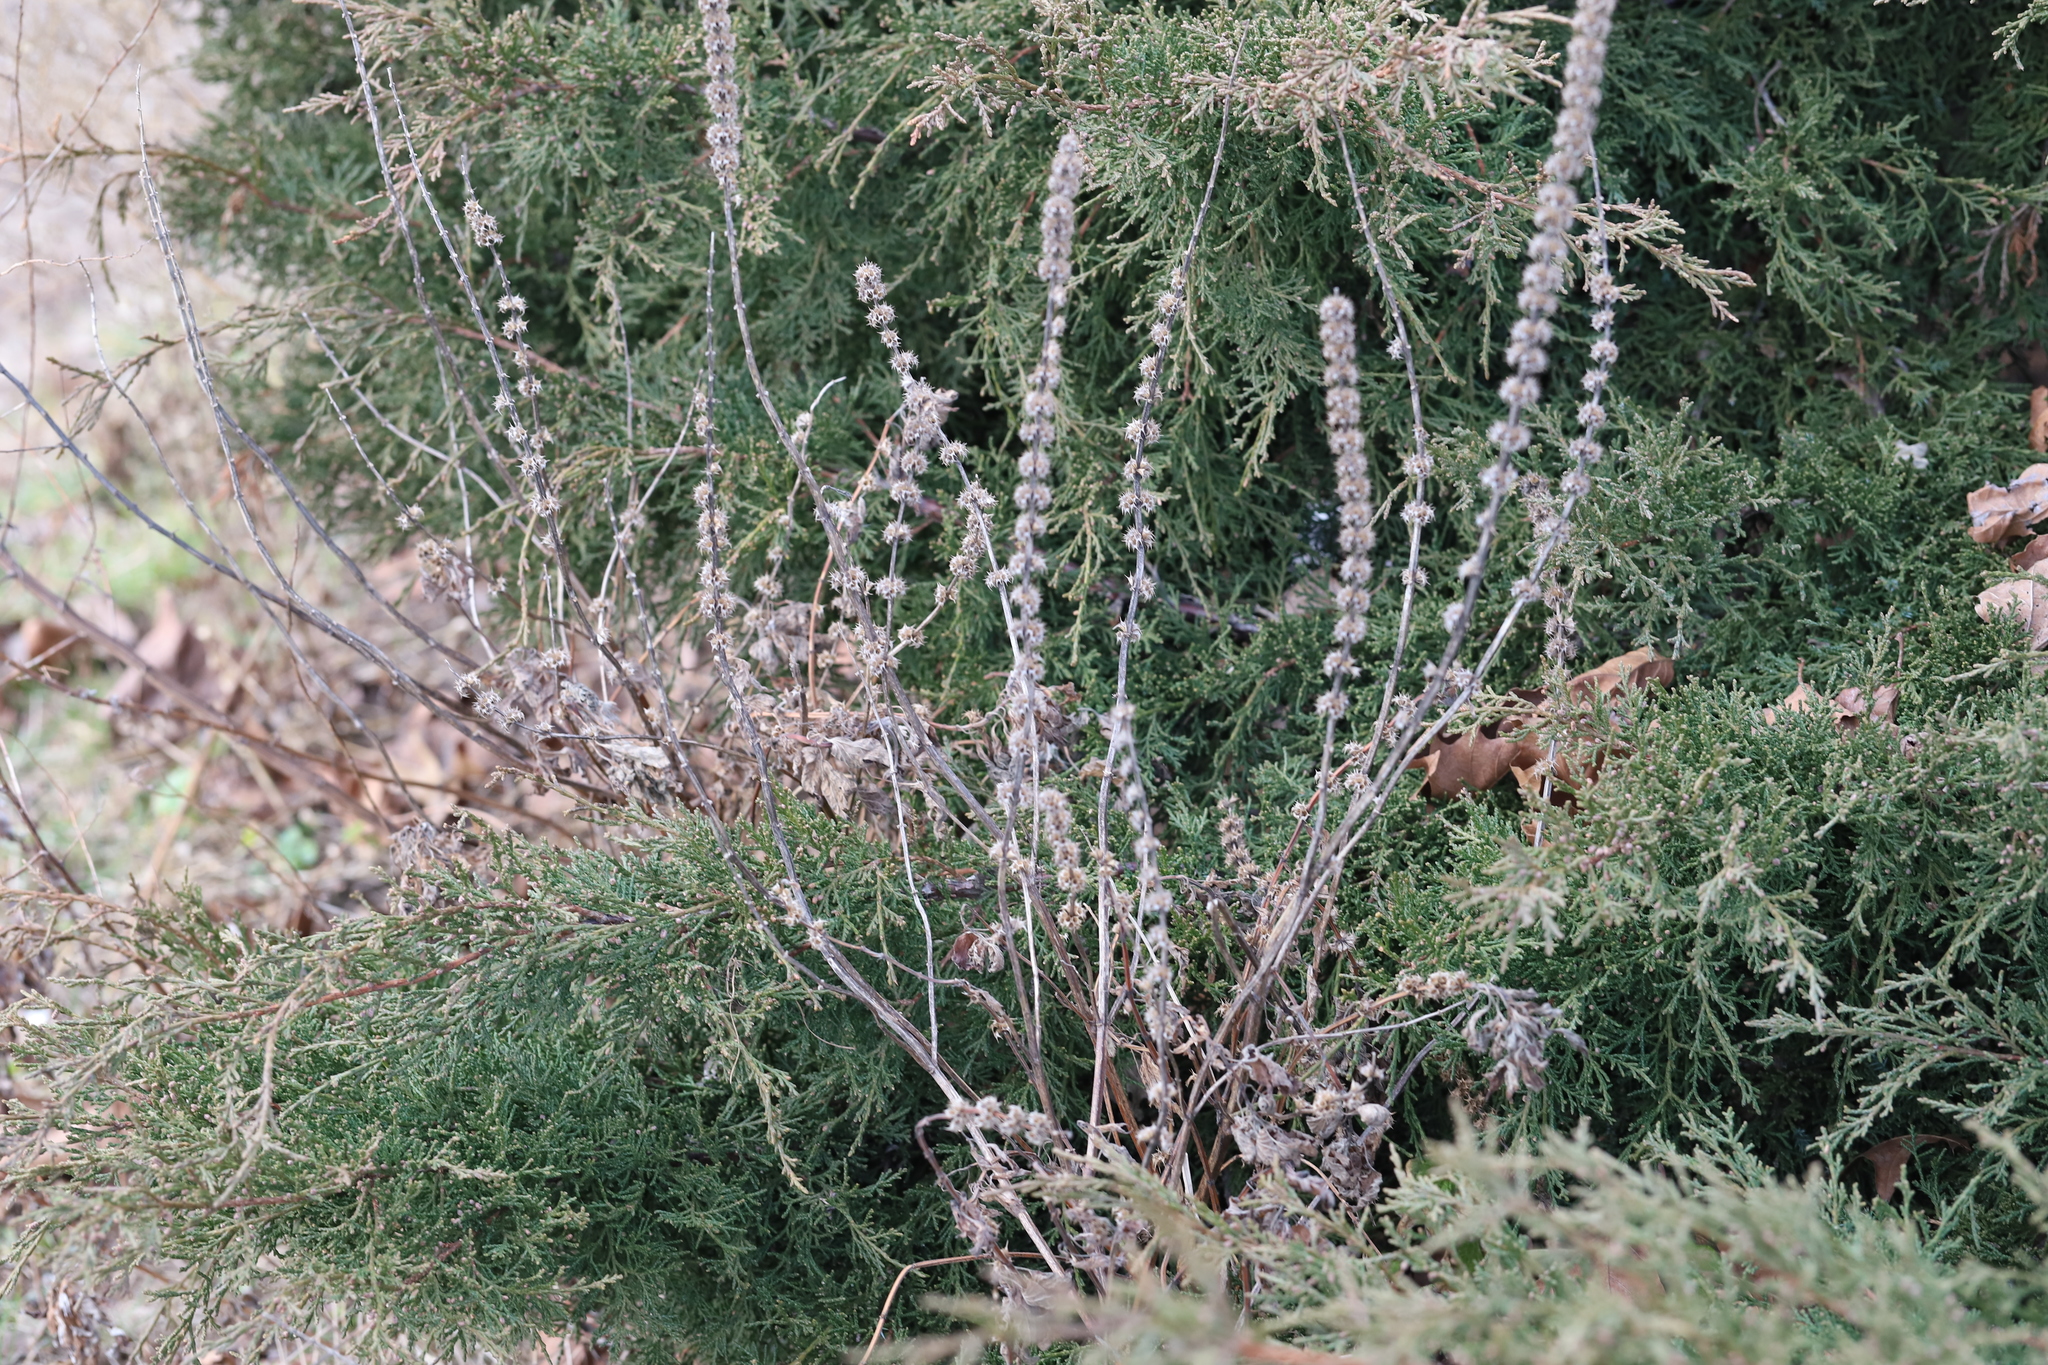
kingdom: Plantae
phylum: Tracheophyta
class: Magnoliopsida
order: Lamiales
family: Lamiaceae
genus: Leonurus
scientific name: Leonurus cardiaca
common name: Motherwort
